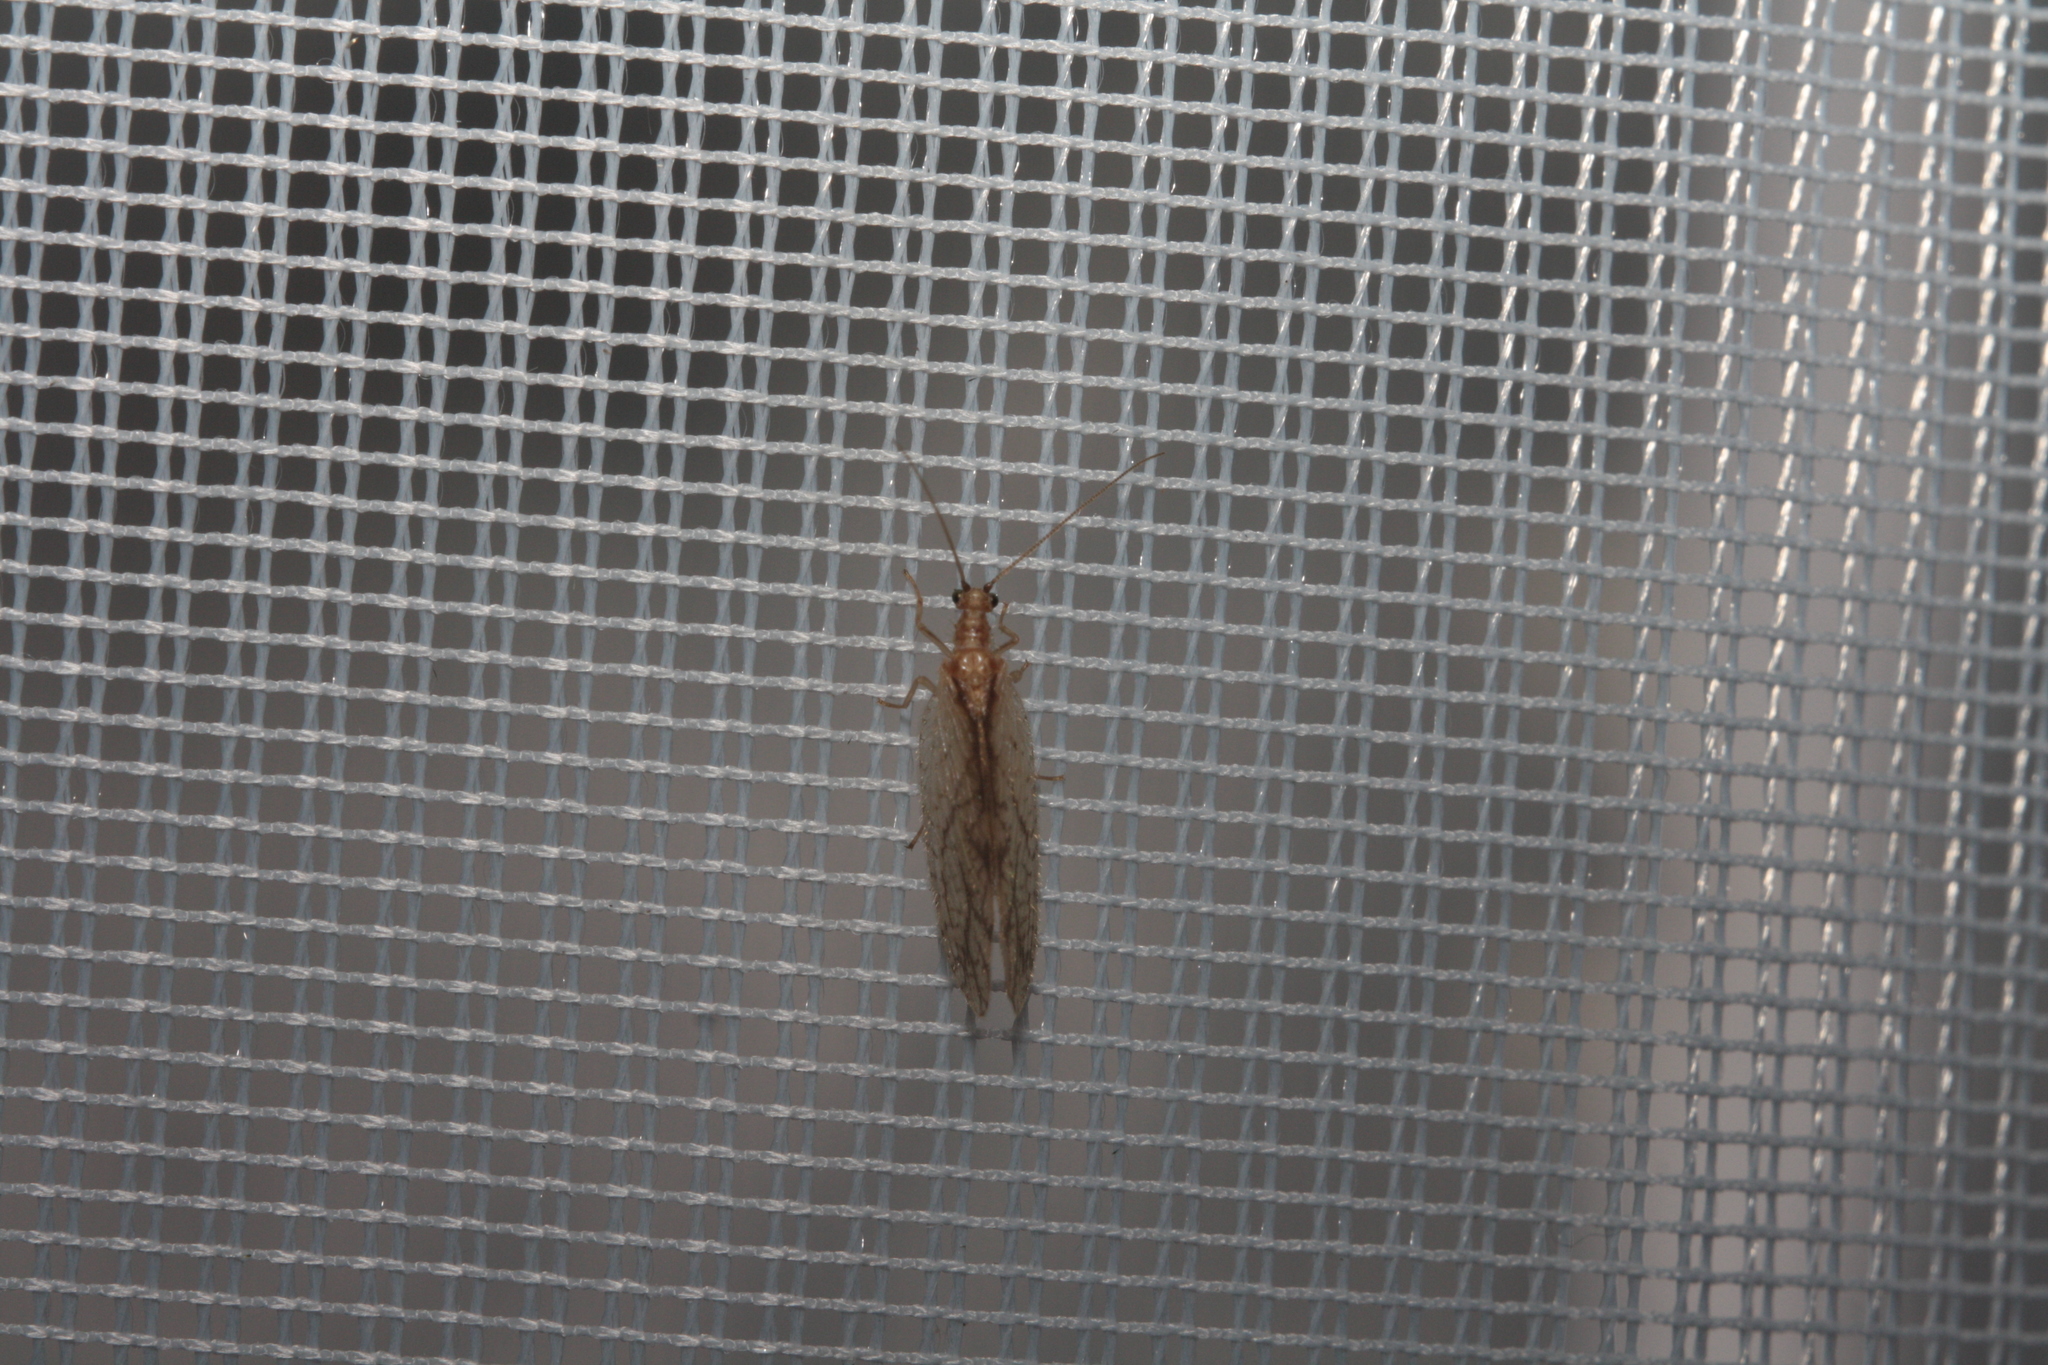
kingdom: Animalia
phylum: Arthropoda
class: Insecta
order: Neuroptera
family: Hemerobiidae
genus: Micromus
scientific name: Micromus lanosus
